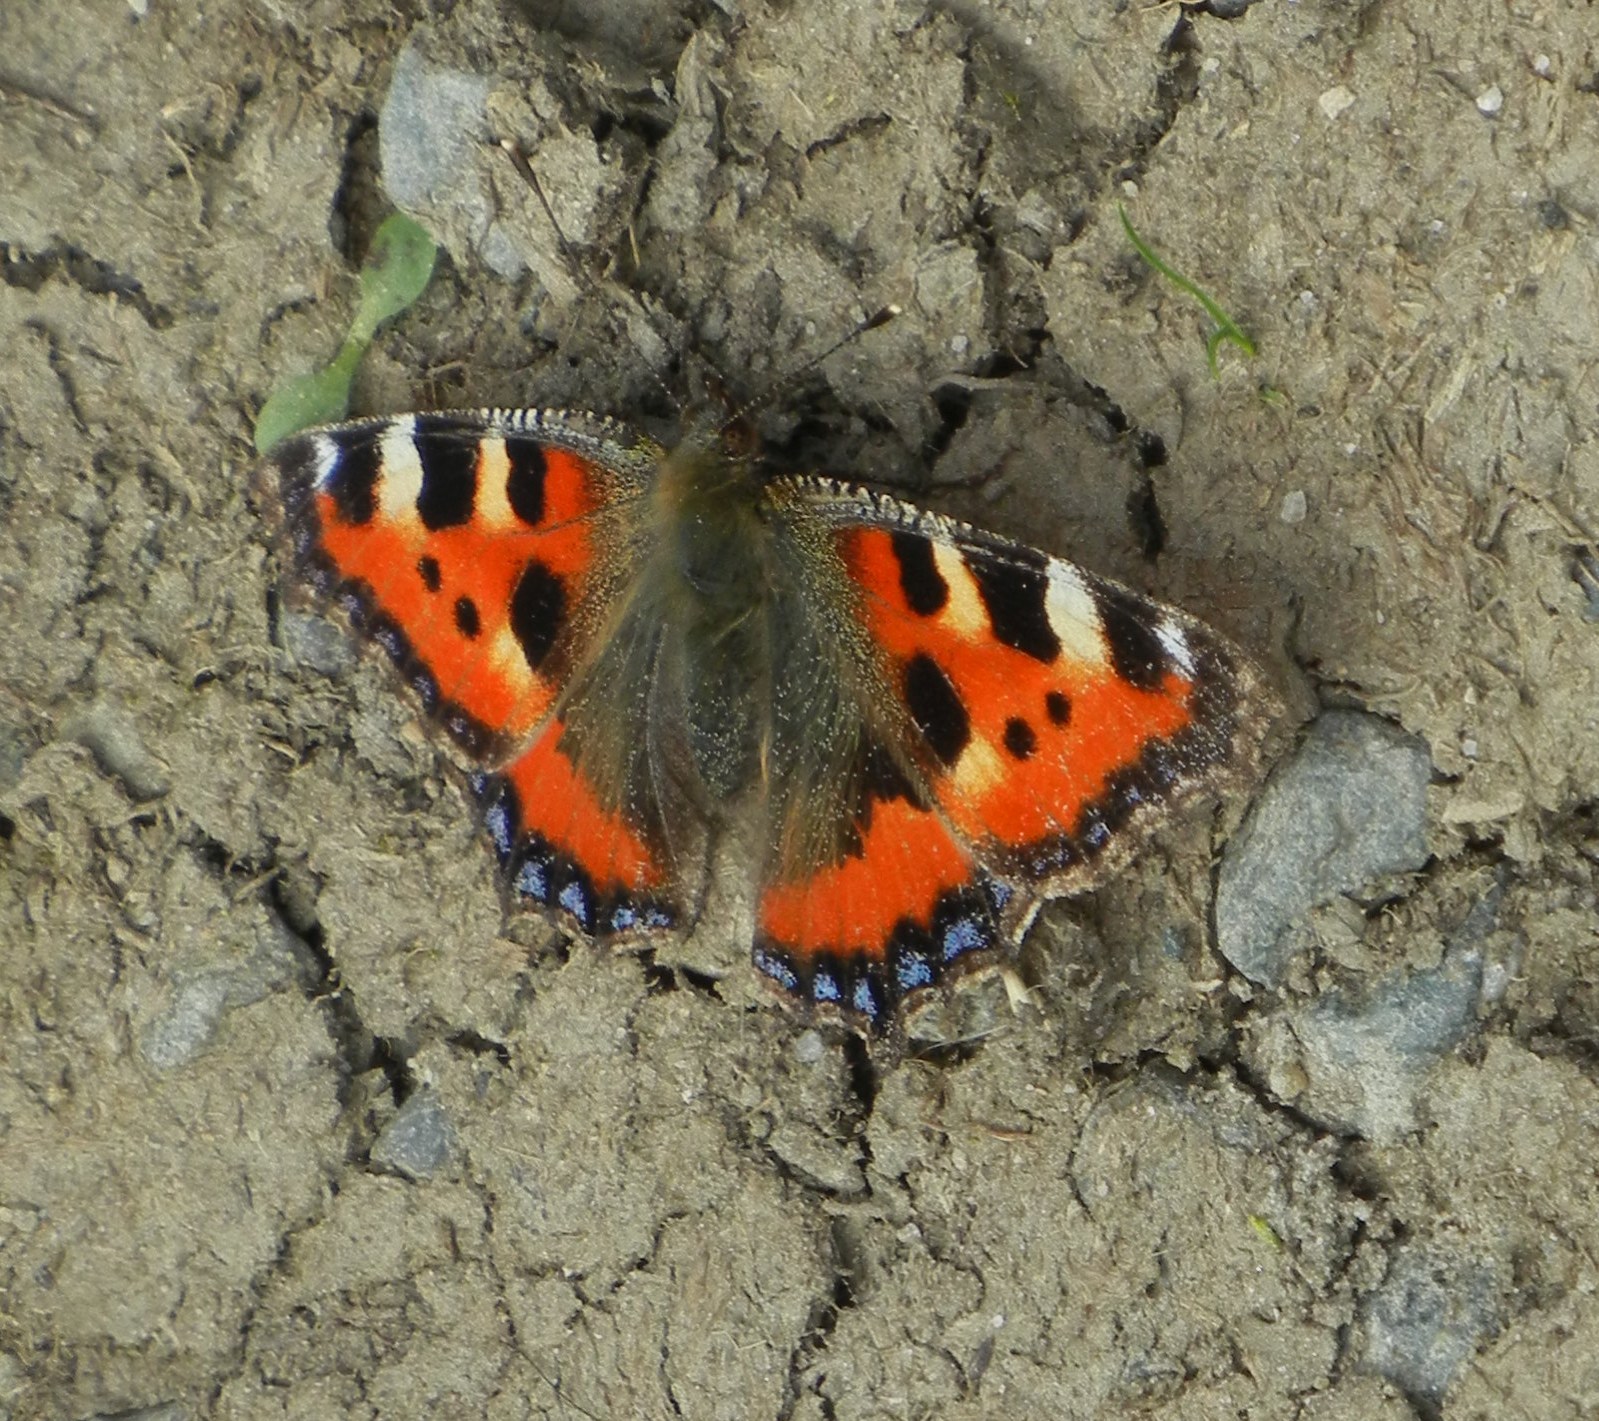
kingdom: Animalia
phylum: Arthropoda
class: Insecta
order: Lepidoptera
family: Nymphalidae
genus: Aglais
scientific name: Aglais urticae
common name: Small tortoiseshell
